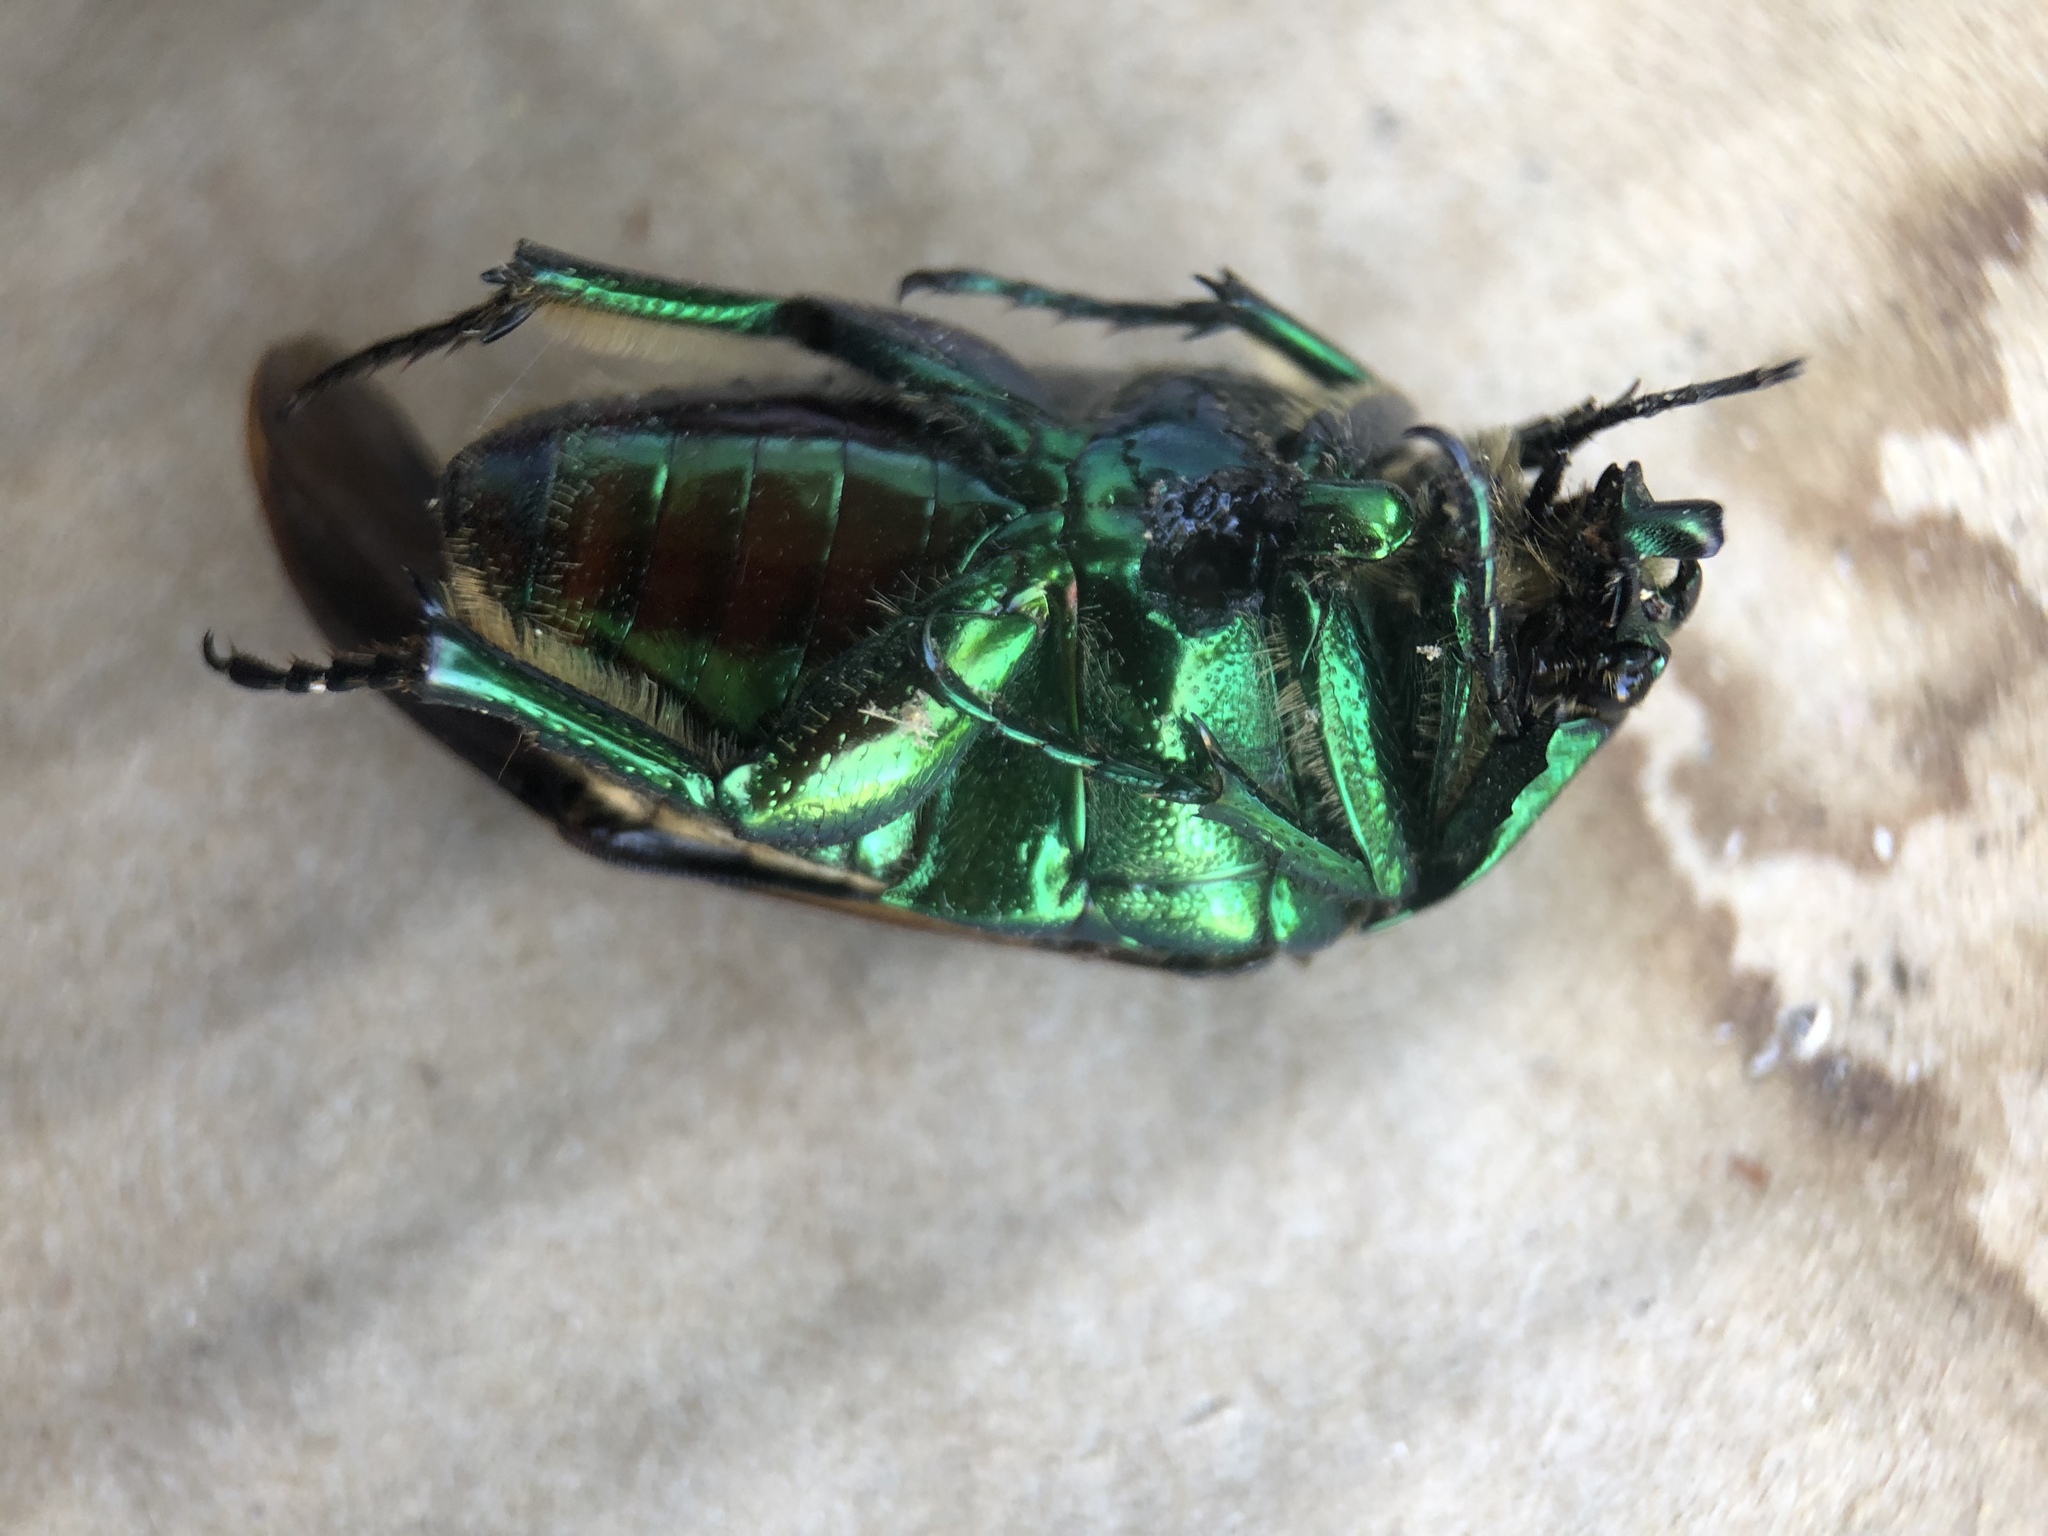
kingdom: Animalia
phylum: Arthropoda
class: Insecta
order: Coleoptera
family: Scarabaeidae
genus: Cotinis
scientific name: Cotinis mutabilis
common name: Figeater beetle
